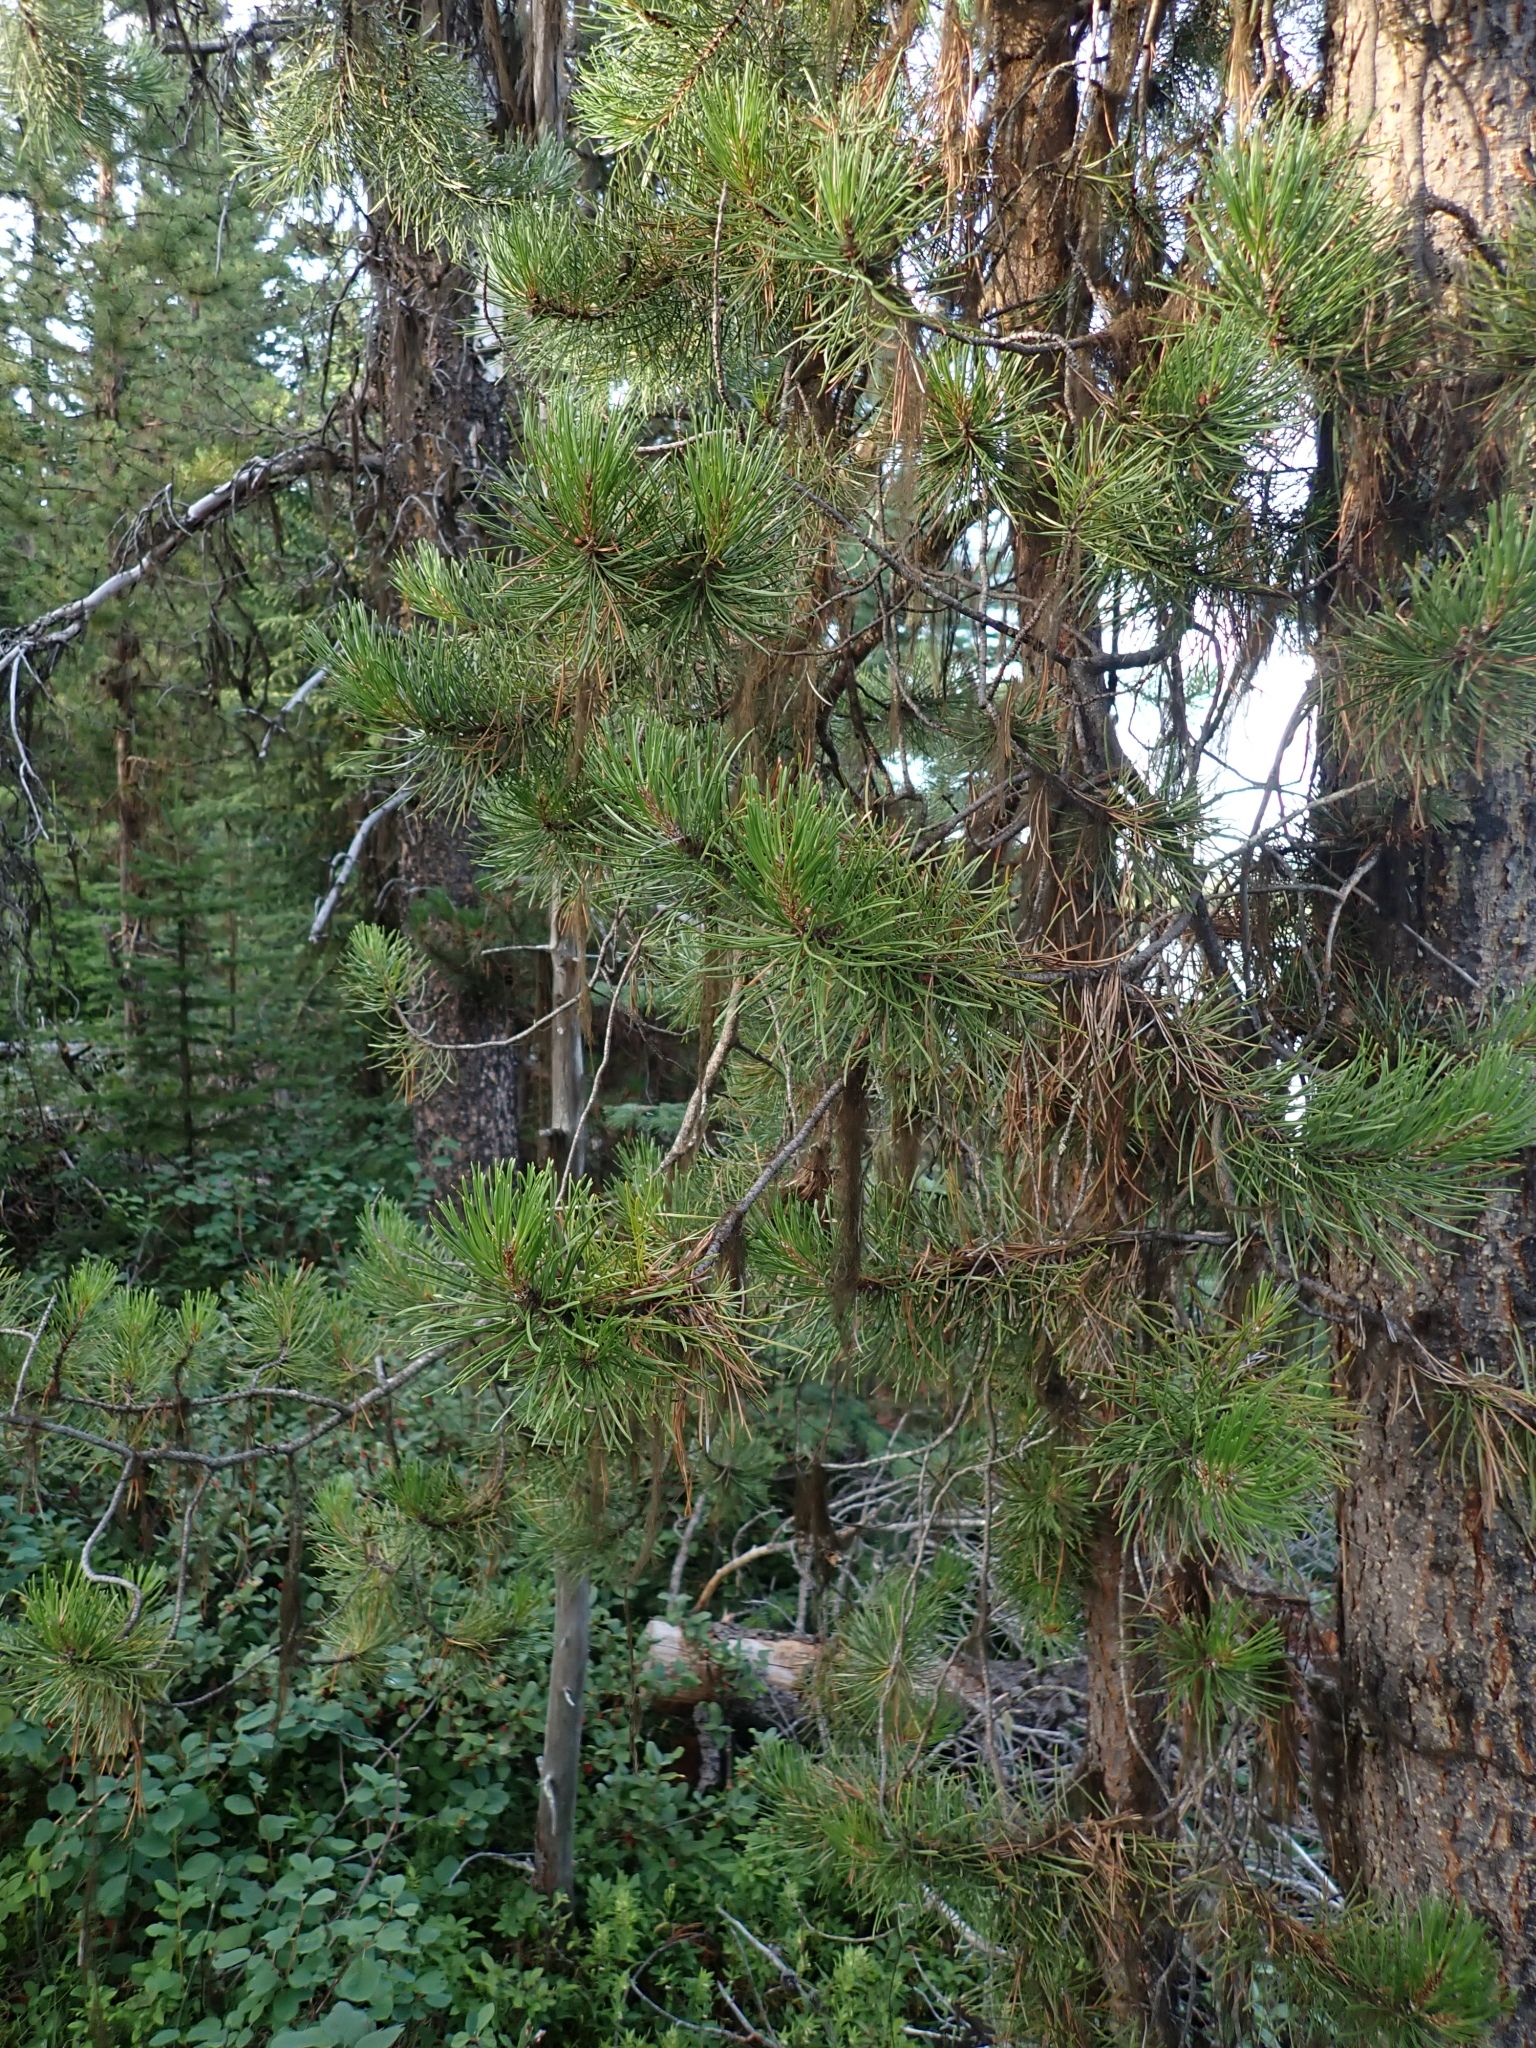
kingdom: Plantae
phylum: Tracheophyta
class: Pinopsida
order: Pinales
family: Pinaceae
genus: Pinus
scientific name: Pinus contorta
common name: Lodgepole pine
